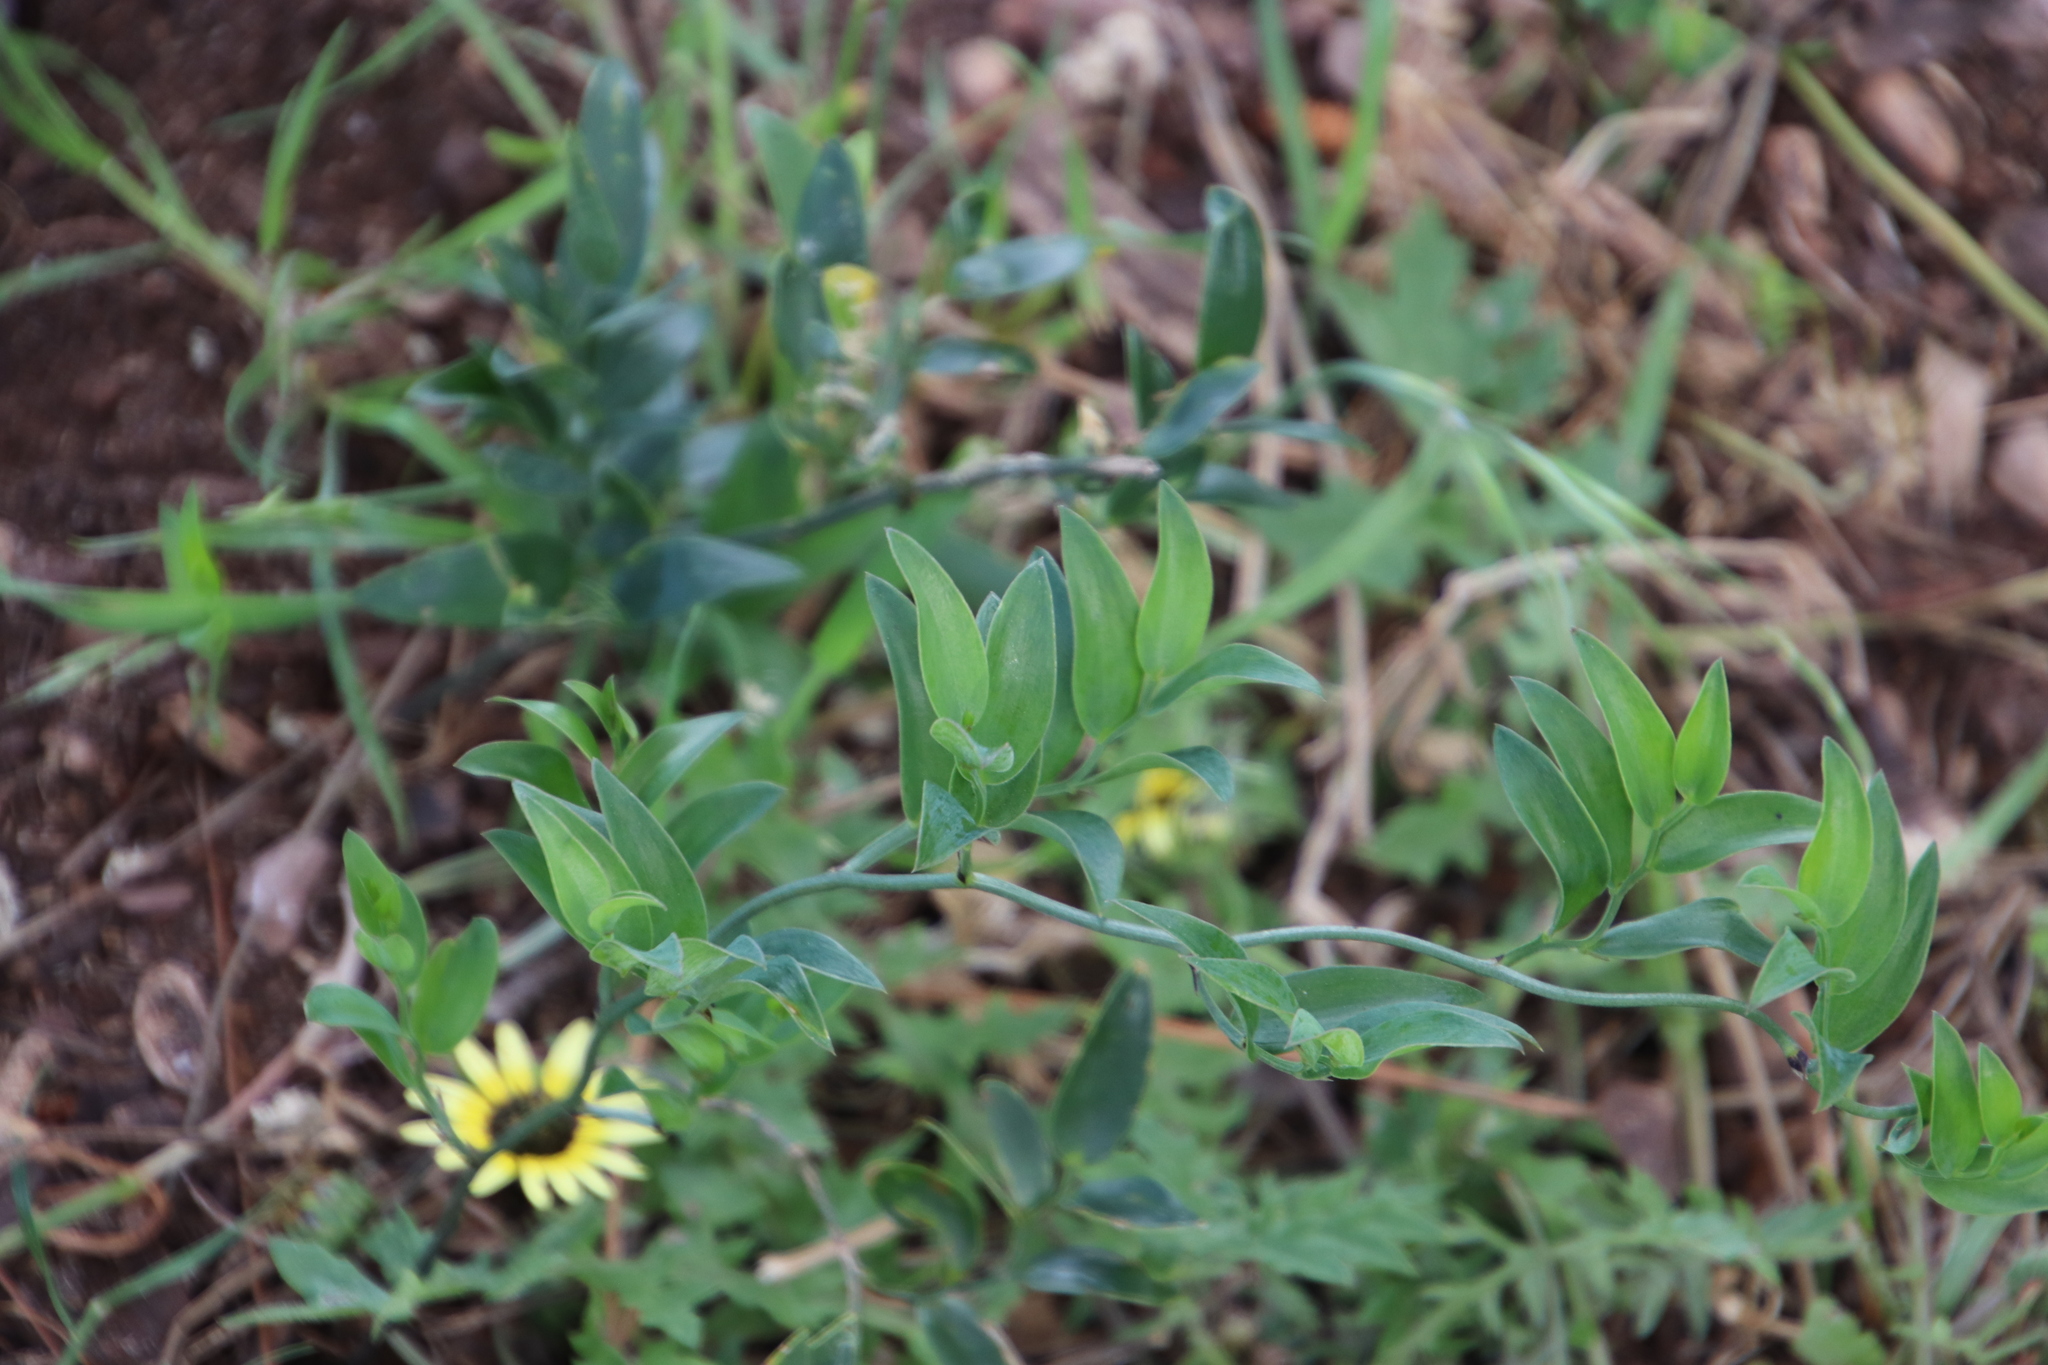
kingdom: Plantae
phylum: Tracheophyta
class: Liliopsida
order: Asparagales
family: Asparagaceae
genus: Asparagus
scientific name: Asparagus ovatus
